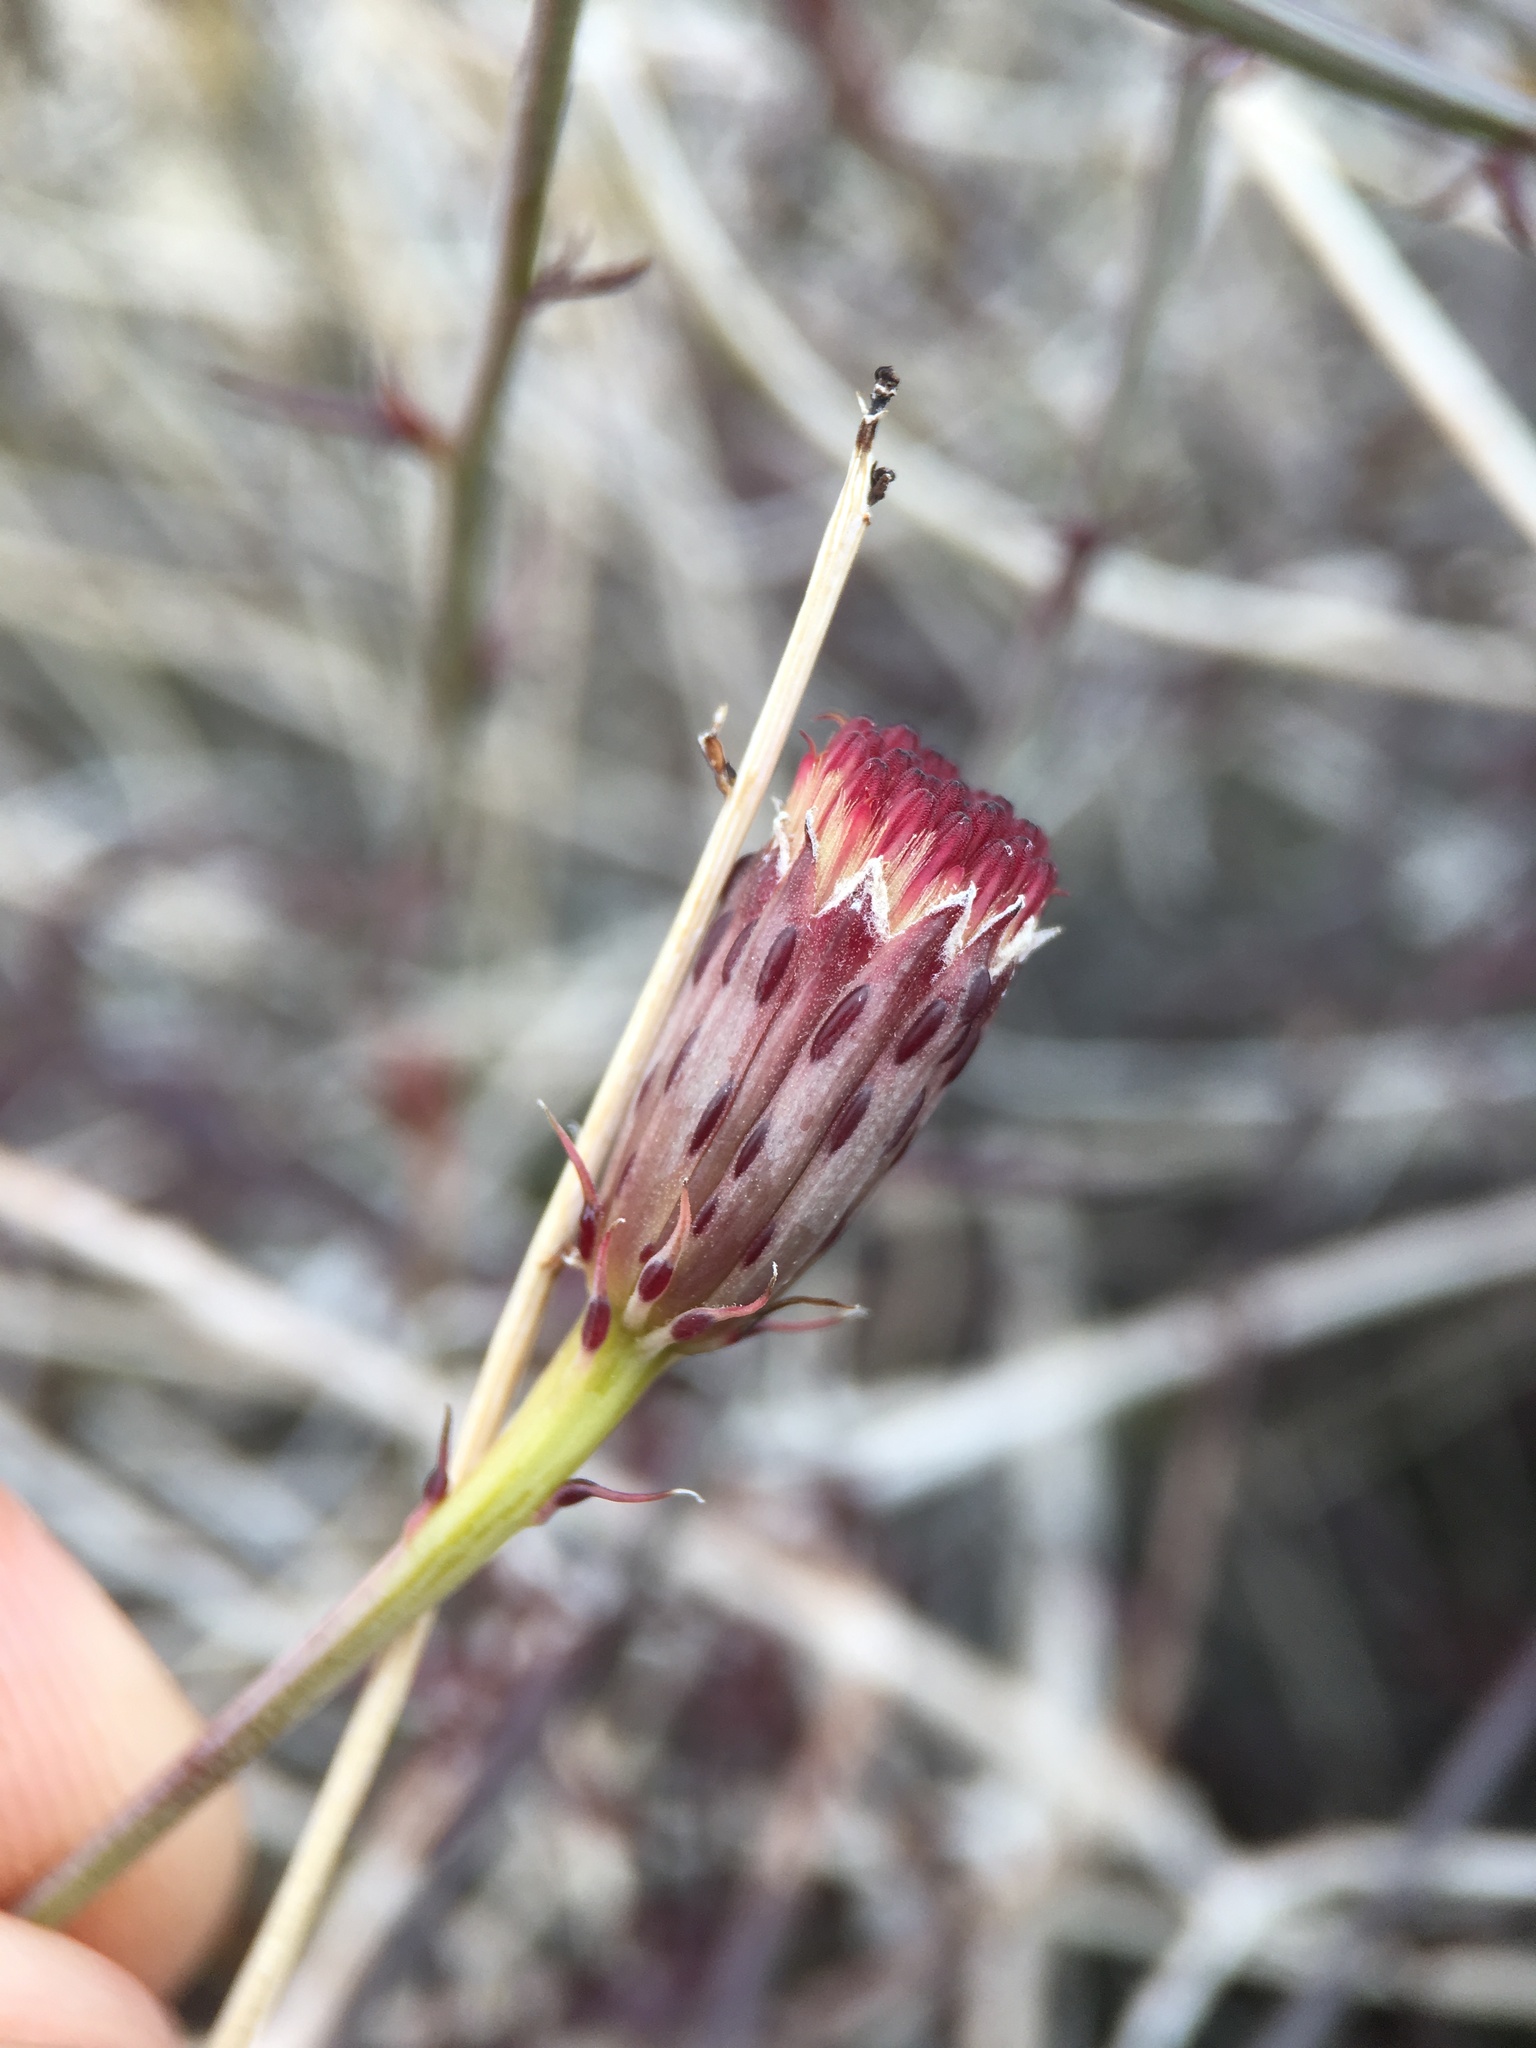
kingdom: Plantae
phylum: Tracheophyta
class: Magnoliopsida
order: Asterales
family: Asteraceae
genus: Adenophyllum
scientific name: Adenophyllum porophylloides
